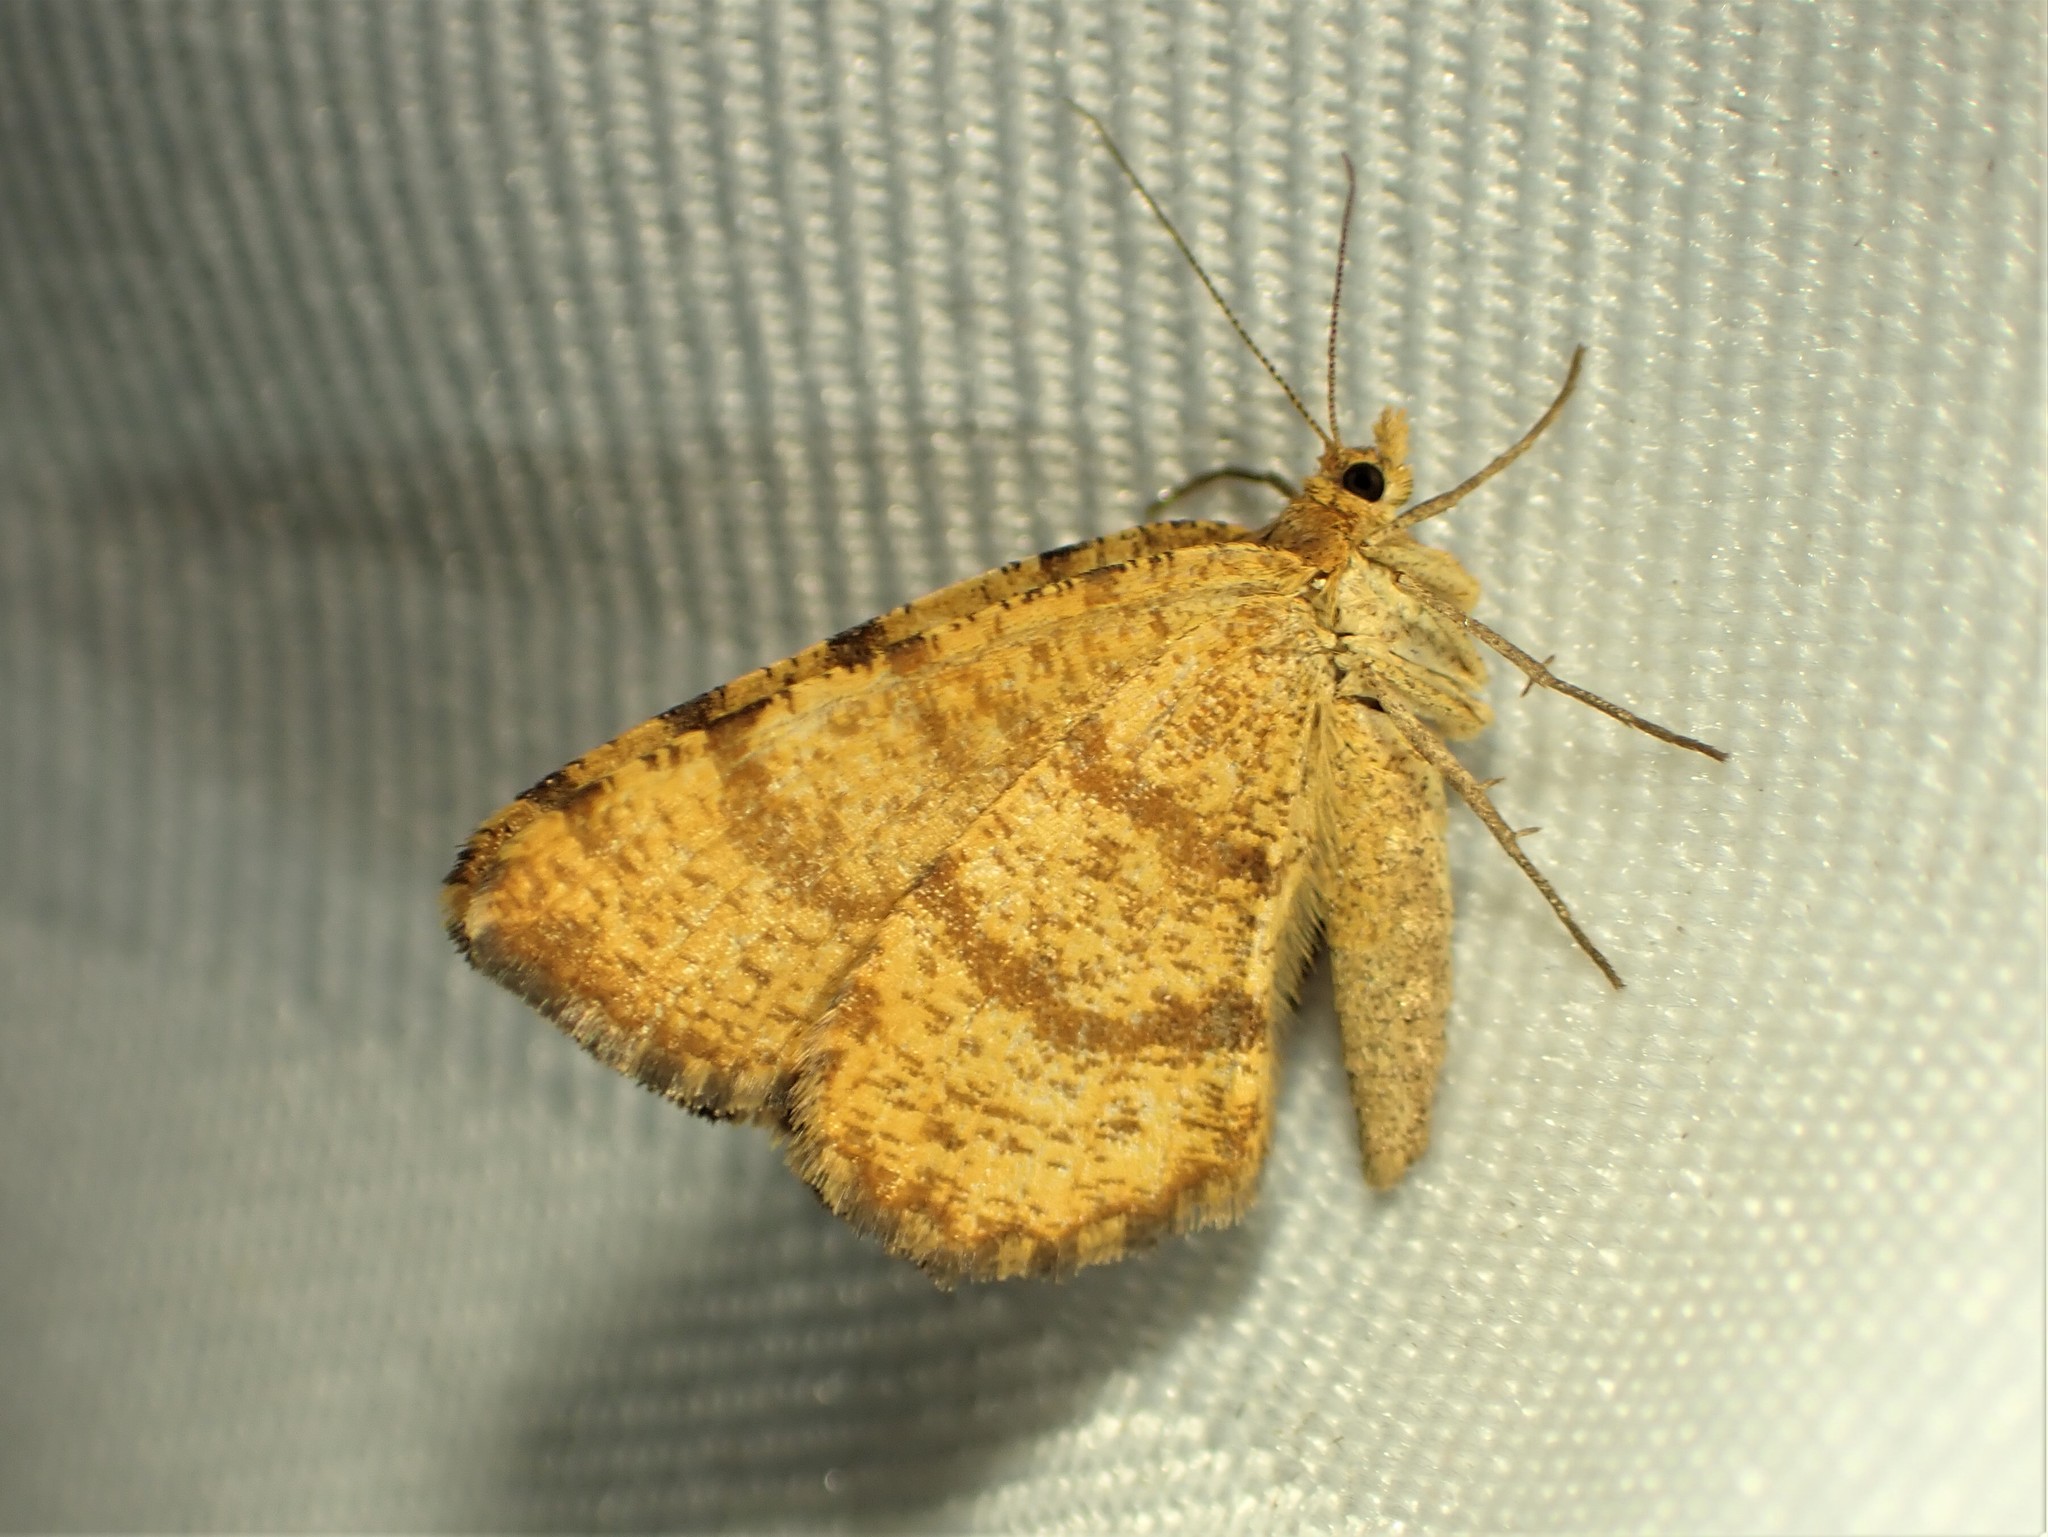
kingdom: Animalia
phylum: Arthropoda
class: Insecta
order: Lepidoptera
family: Geometridae
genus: Macaria
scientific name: Macaria brunneata
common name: Rannoch looper
